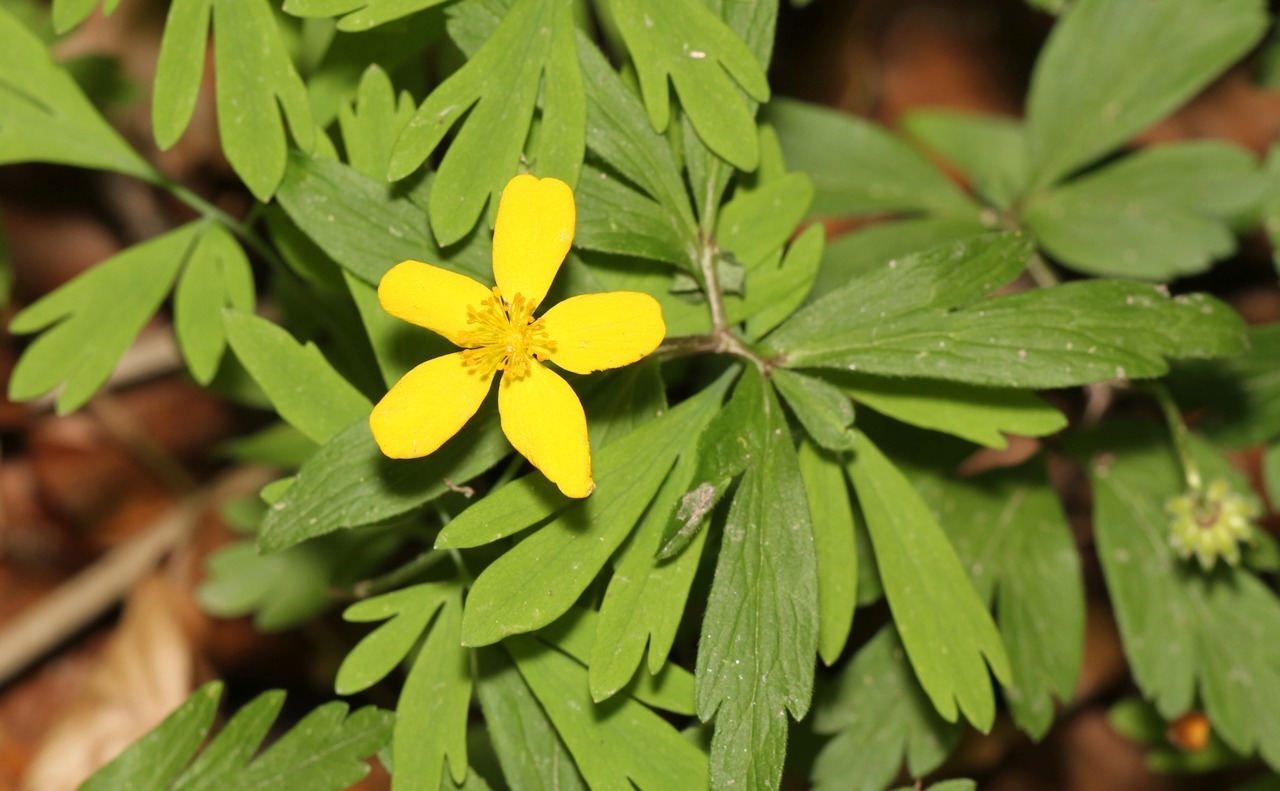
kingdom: Plantae
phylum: Tracheophyta
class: Magnoliopsida
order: Ranunculales
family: Ranunculaceae
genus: Anemone
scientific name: Anemone ranunculoides
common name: Yellow anemone
